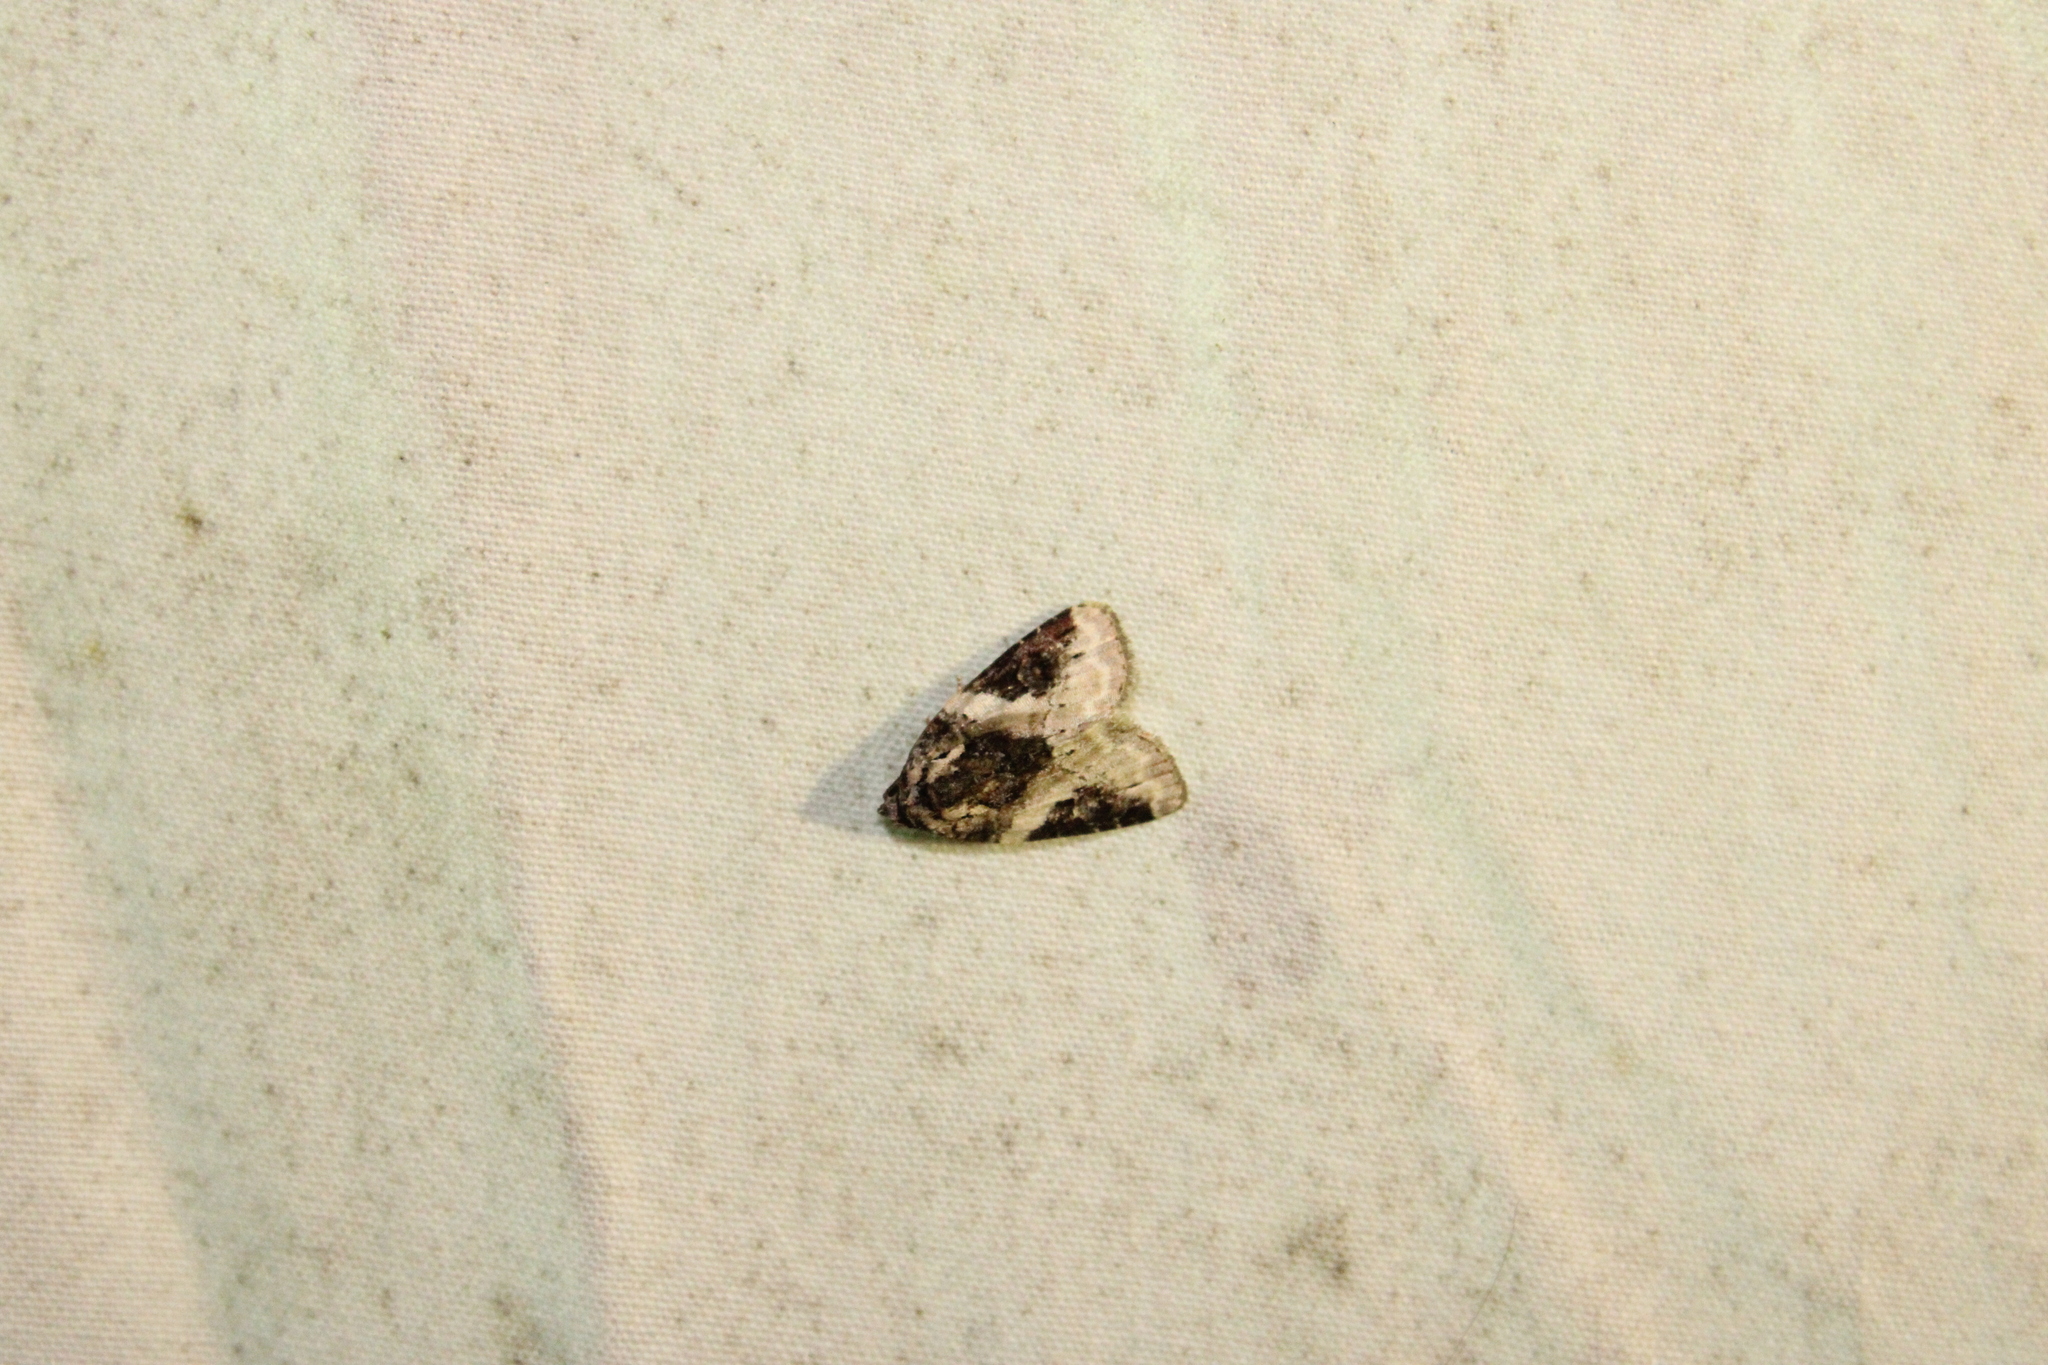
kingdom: Animalia
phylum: Arthropoda
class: Insecta
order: Lepidoptera
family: Noctuidae
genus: Pseudeustrotia
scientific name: Pseudeustrotia carneola
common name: Pink-barred lithacodia moth
